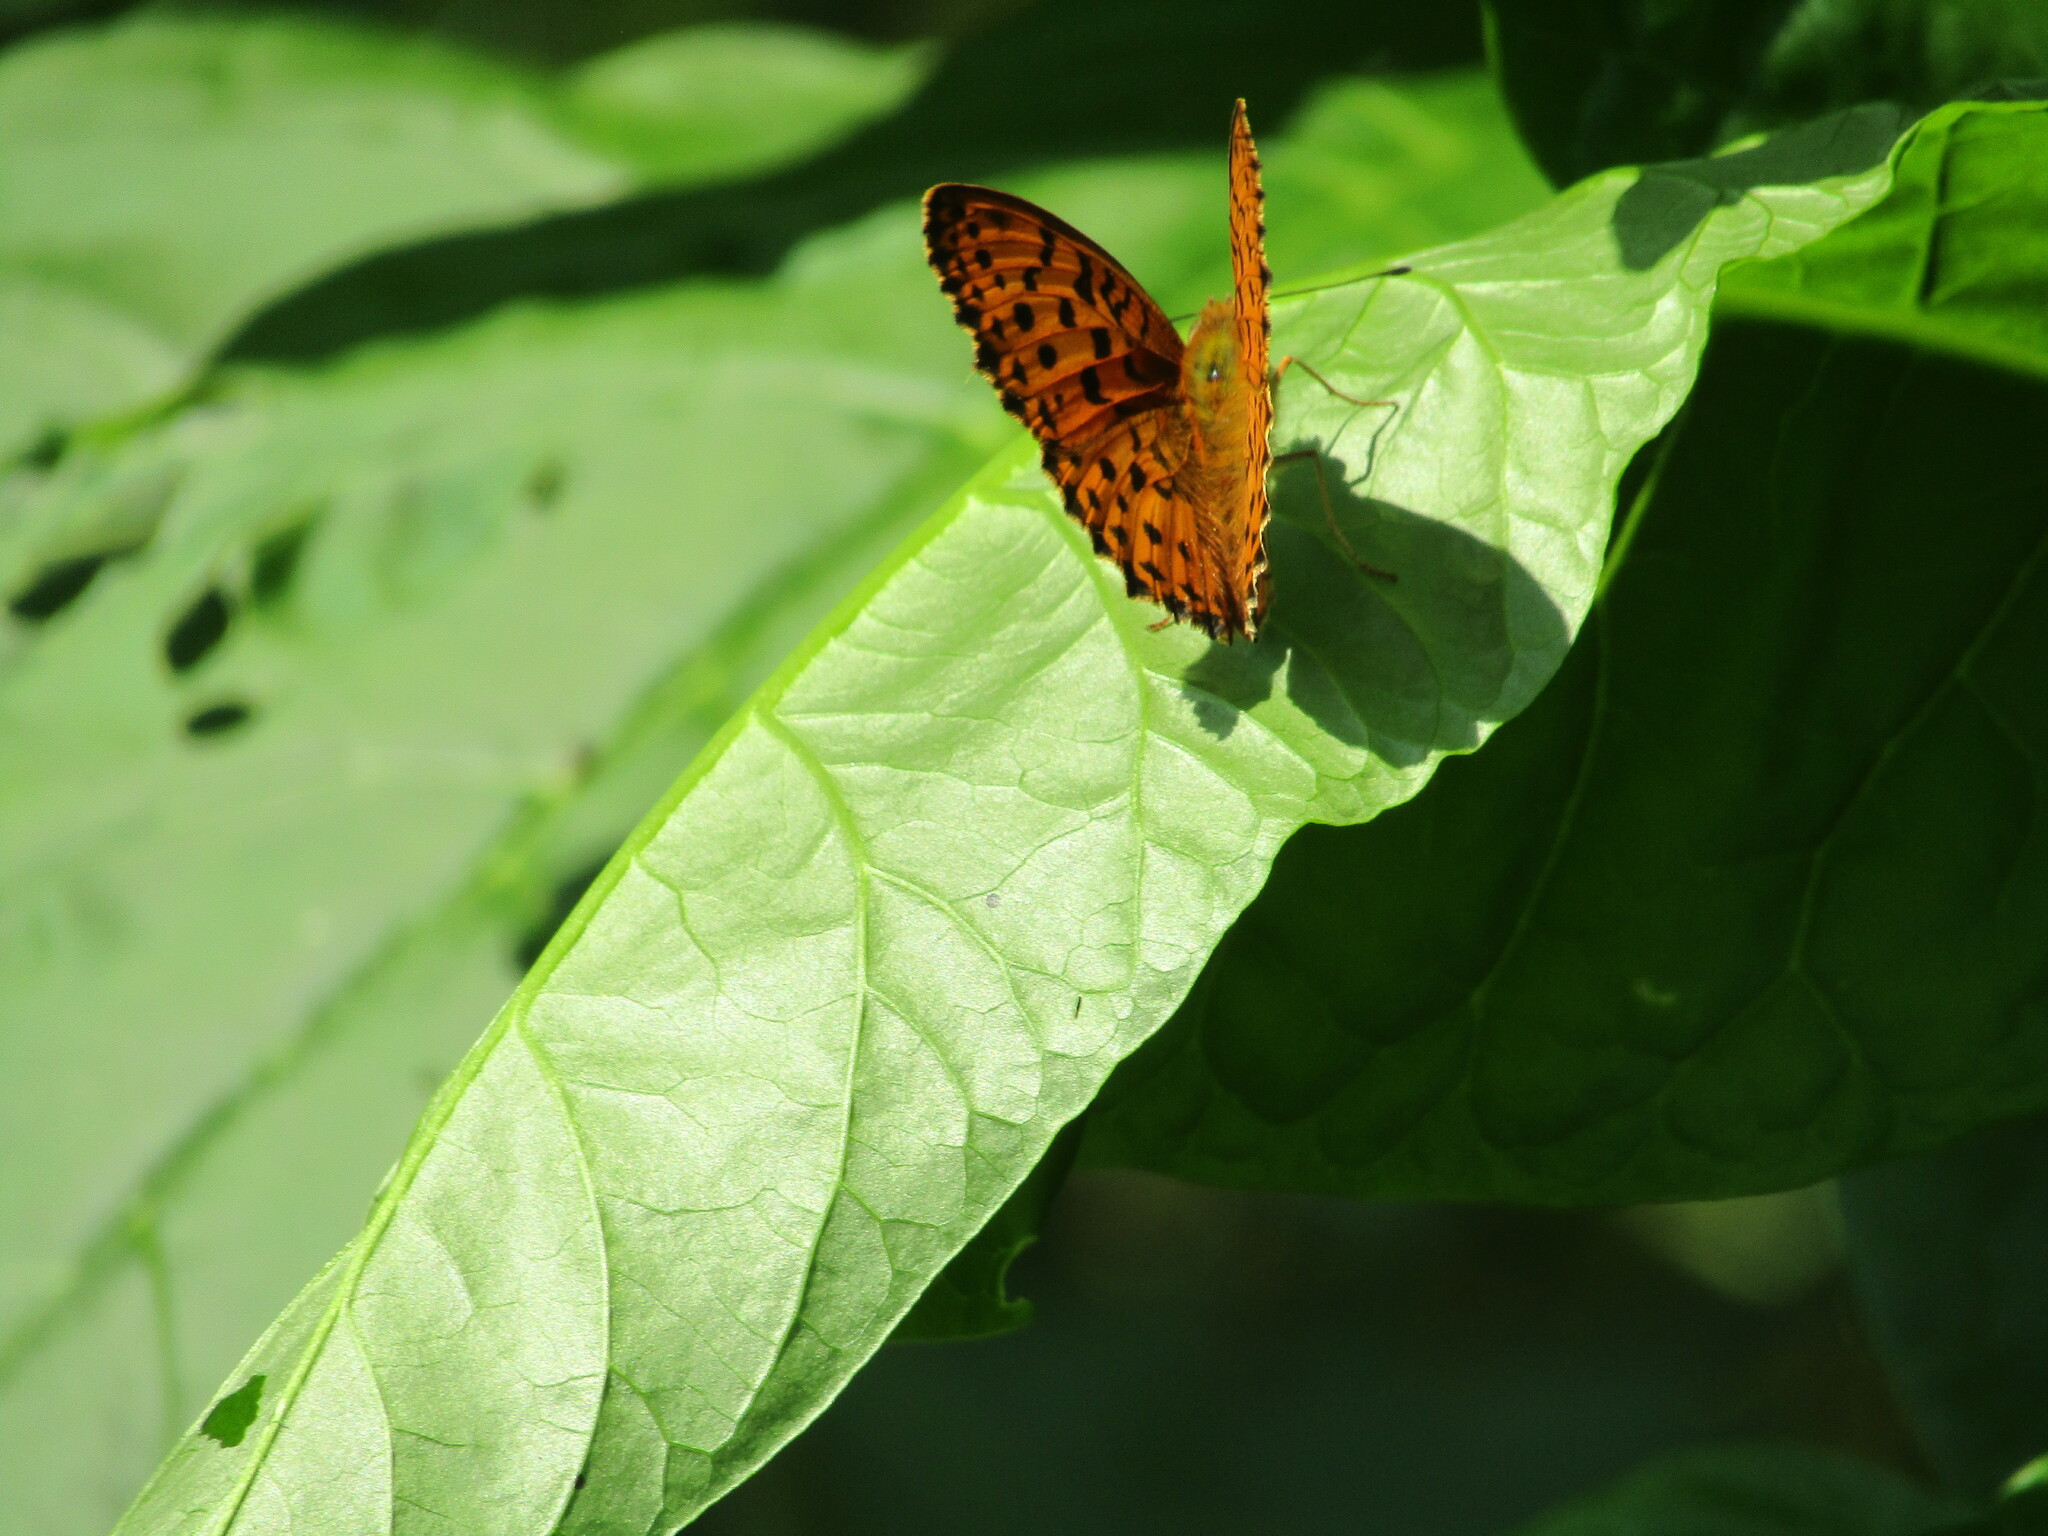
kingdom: Animalia
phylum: Arthropoda
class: Insecta
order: Lepidoptera
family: Nymphalidae
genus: Brenthis
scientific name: Brenthis daphne
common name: Marbled fritillary
